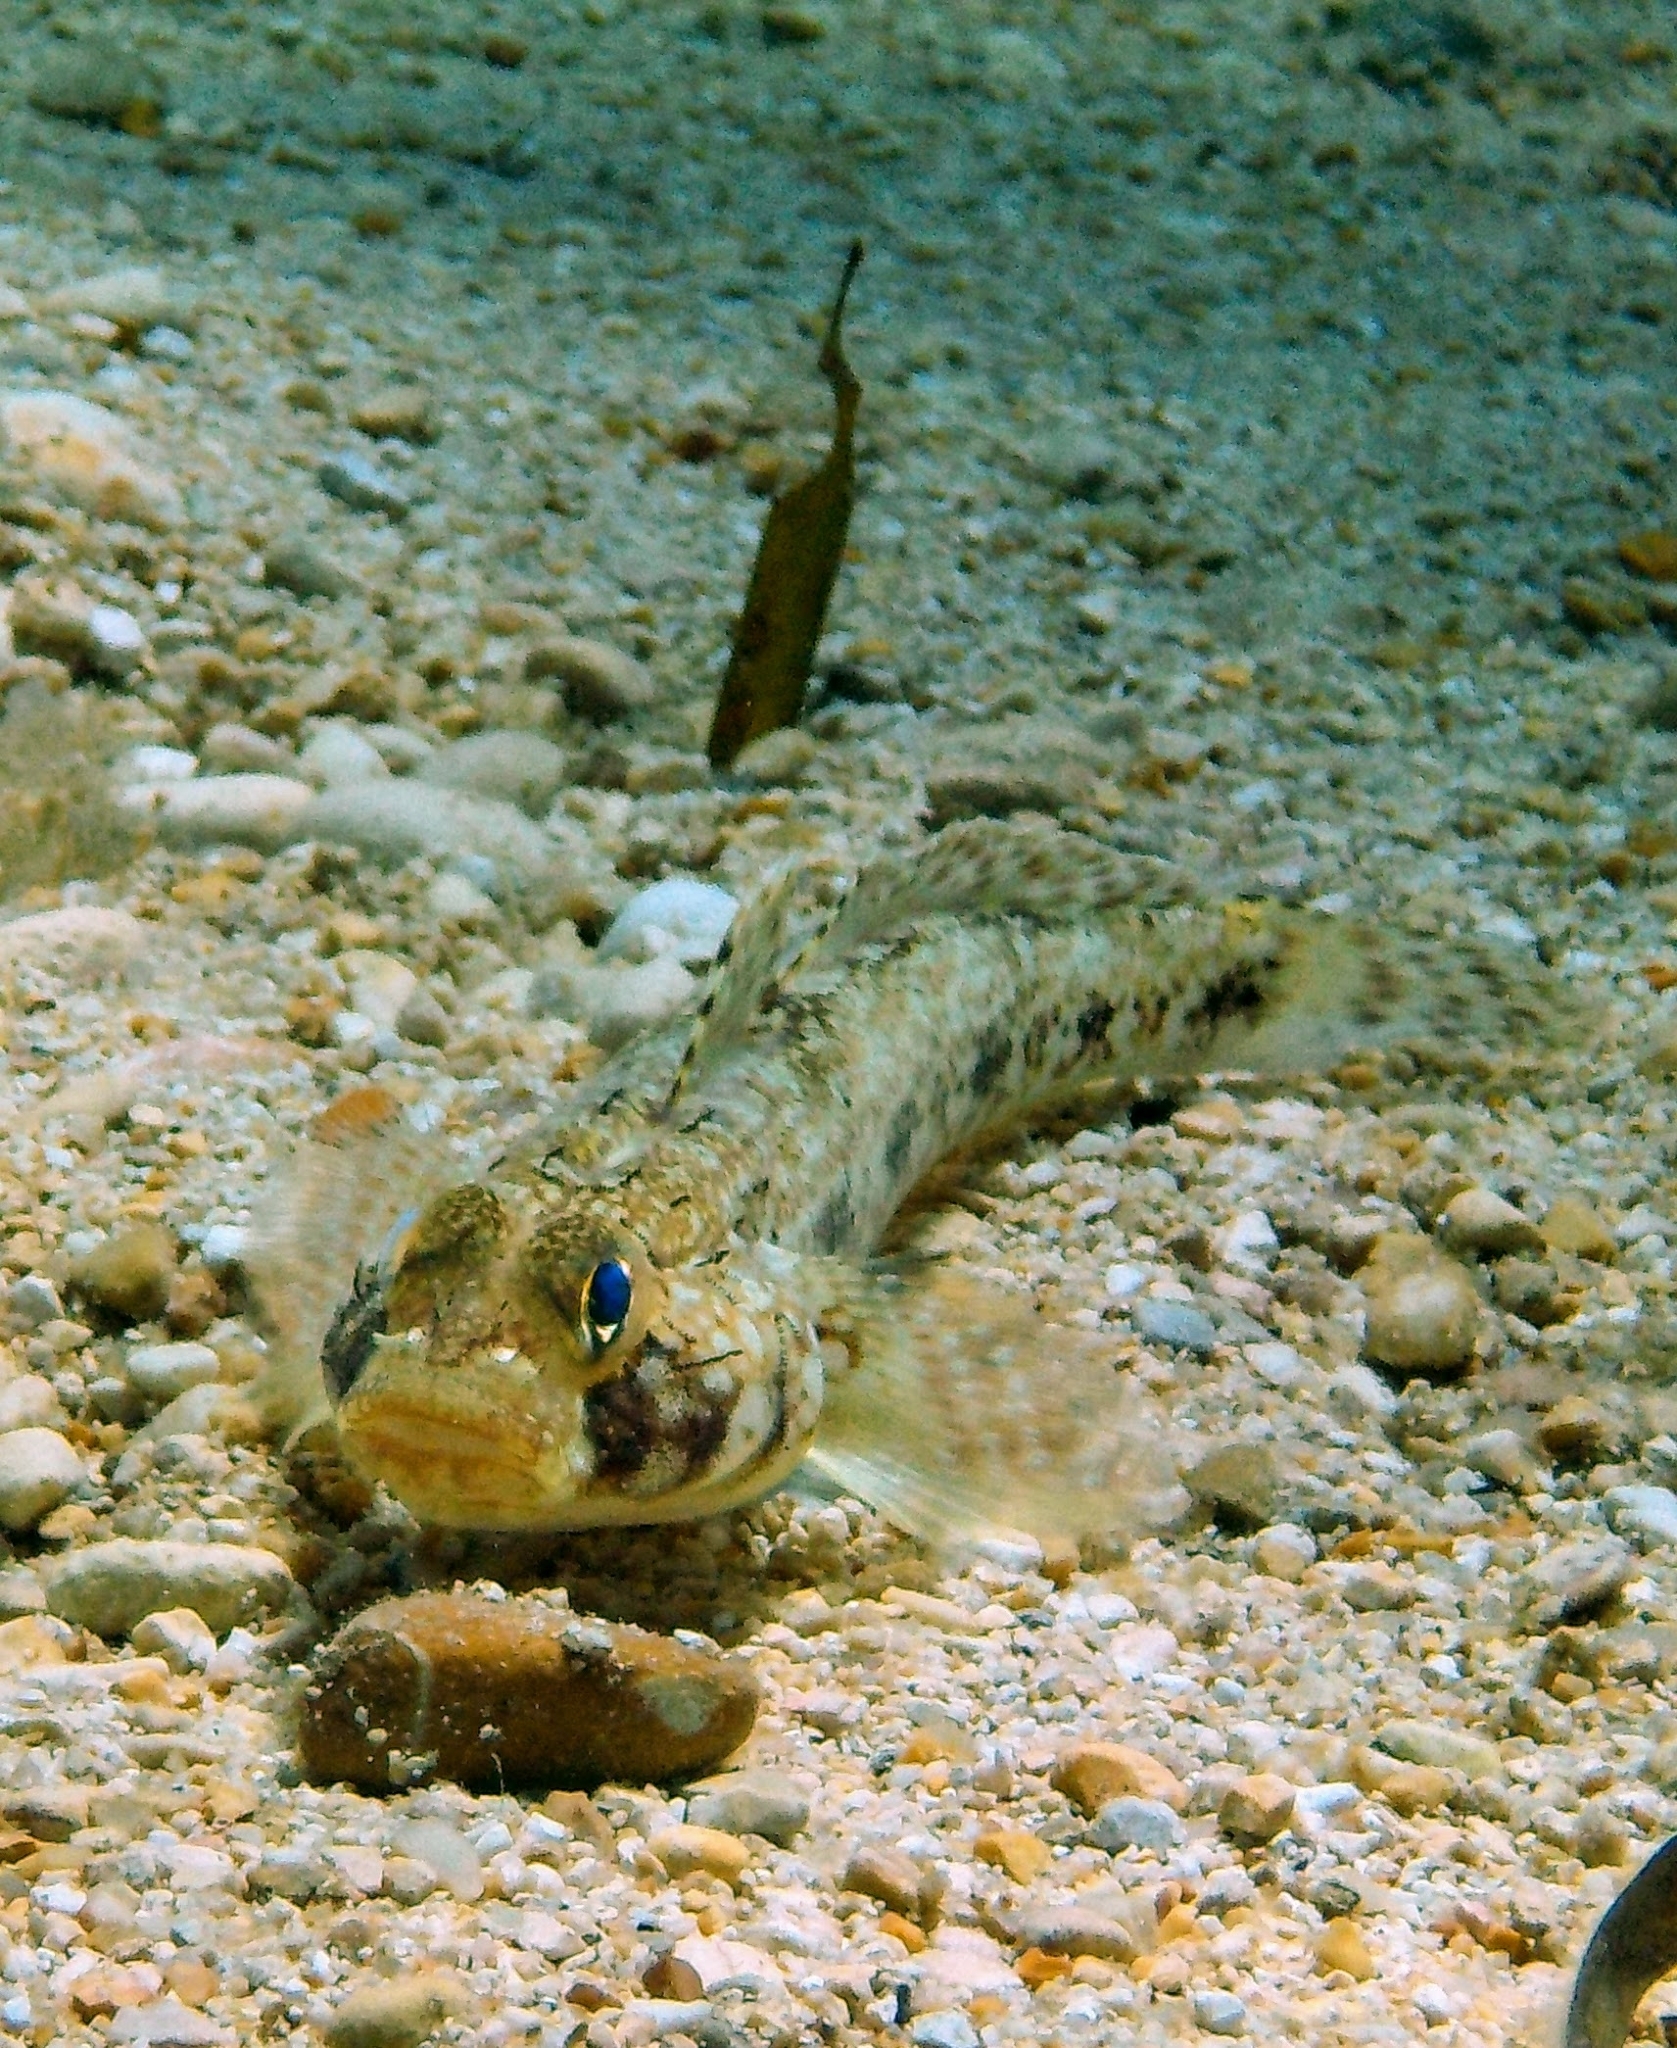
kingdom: Animalia
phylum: Chordata
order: Perciformes
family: Gobiidae
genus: Gobius
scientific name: Gobius geniporus
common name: Slender goby
